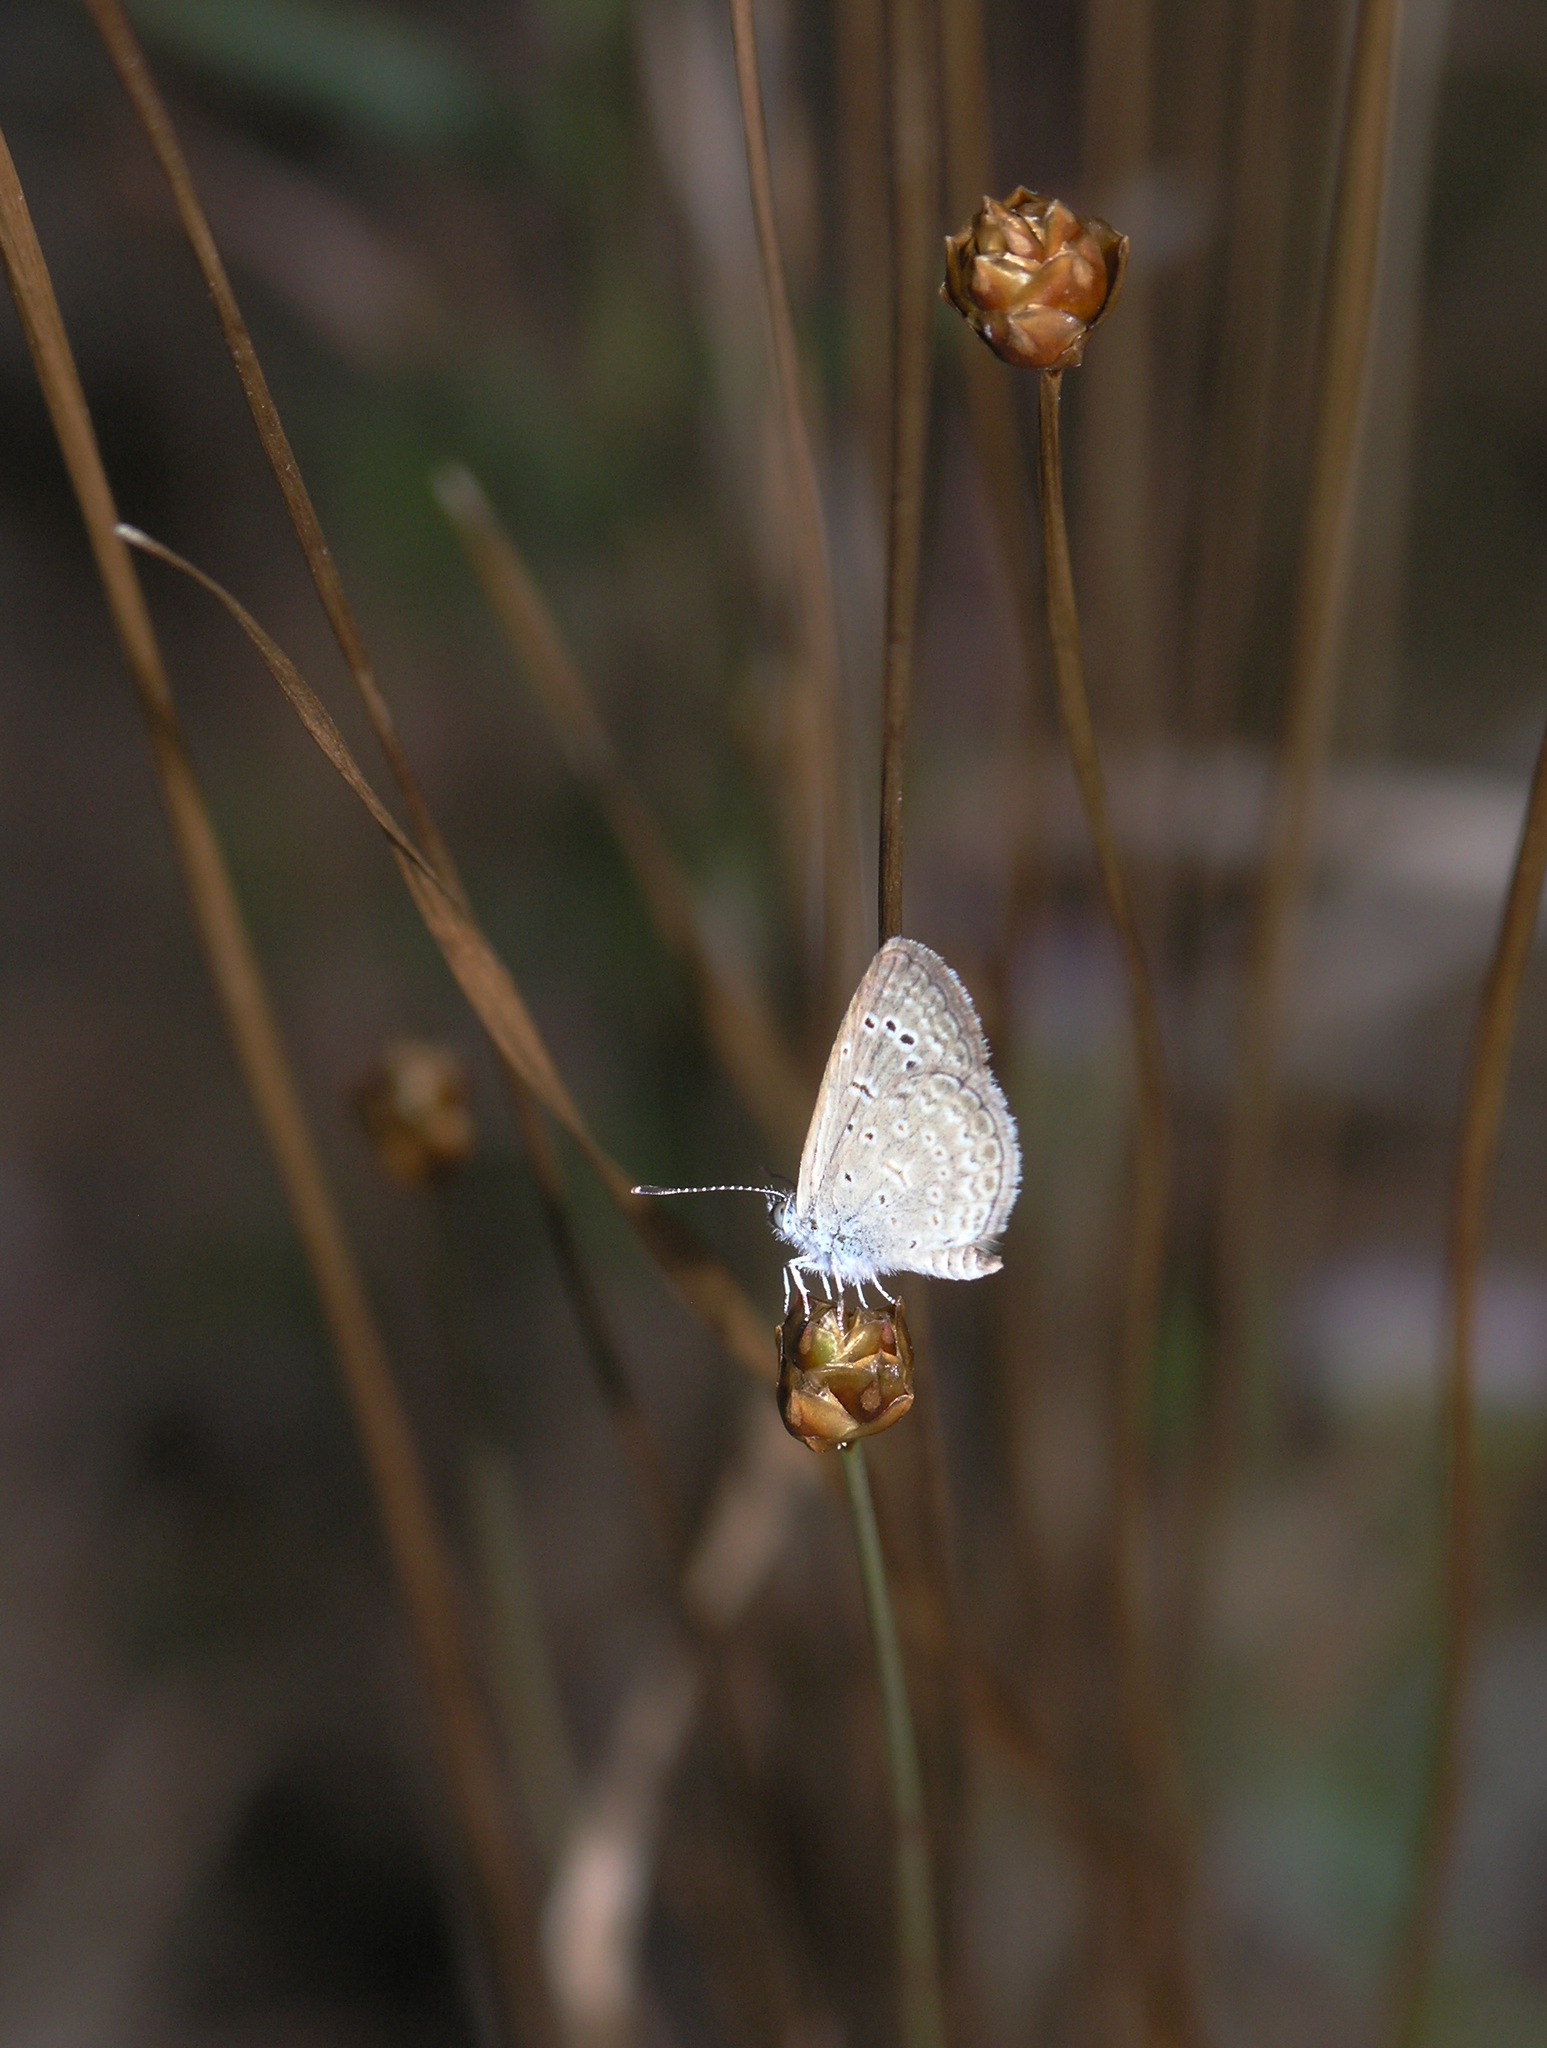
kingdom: Animalia
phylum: Arthropoda
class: Insecta
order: Lepidoptera
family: Lycaenidae
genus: Zizeeria
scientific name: Zizeeria karsandra
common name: Dark grass blue
